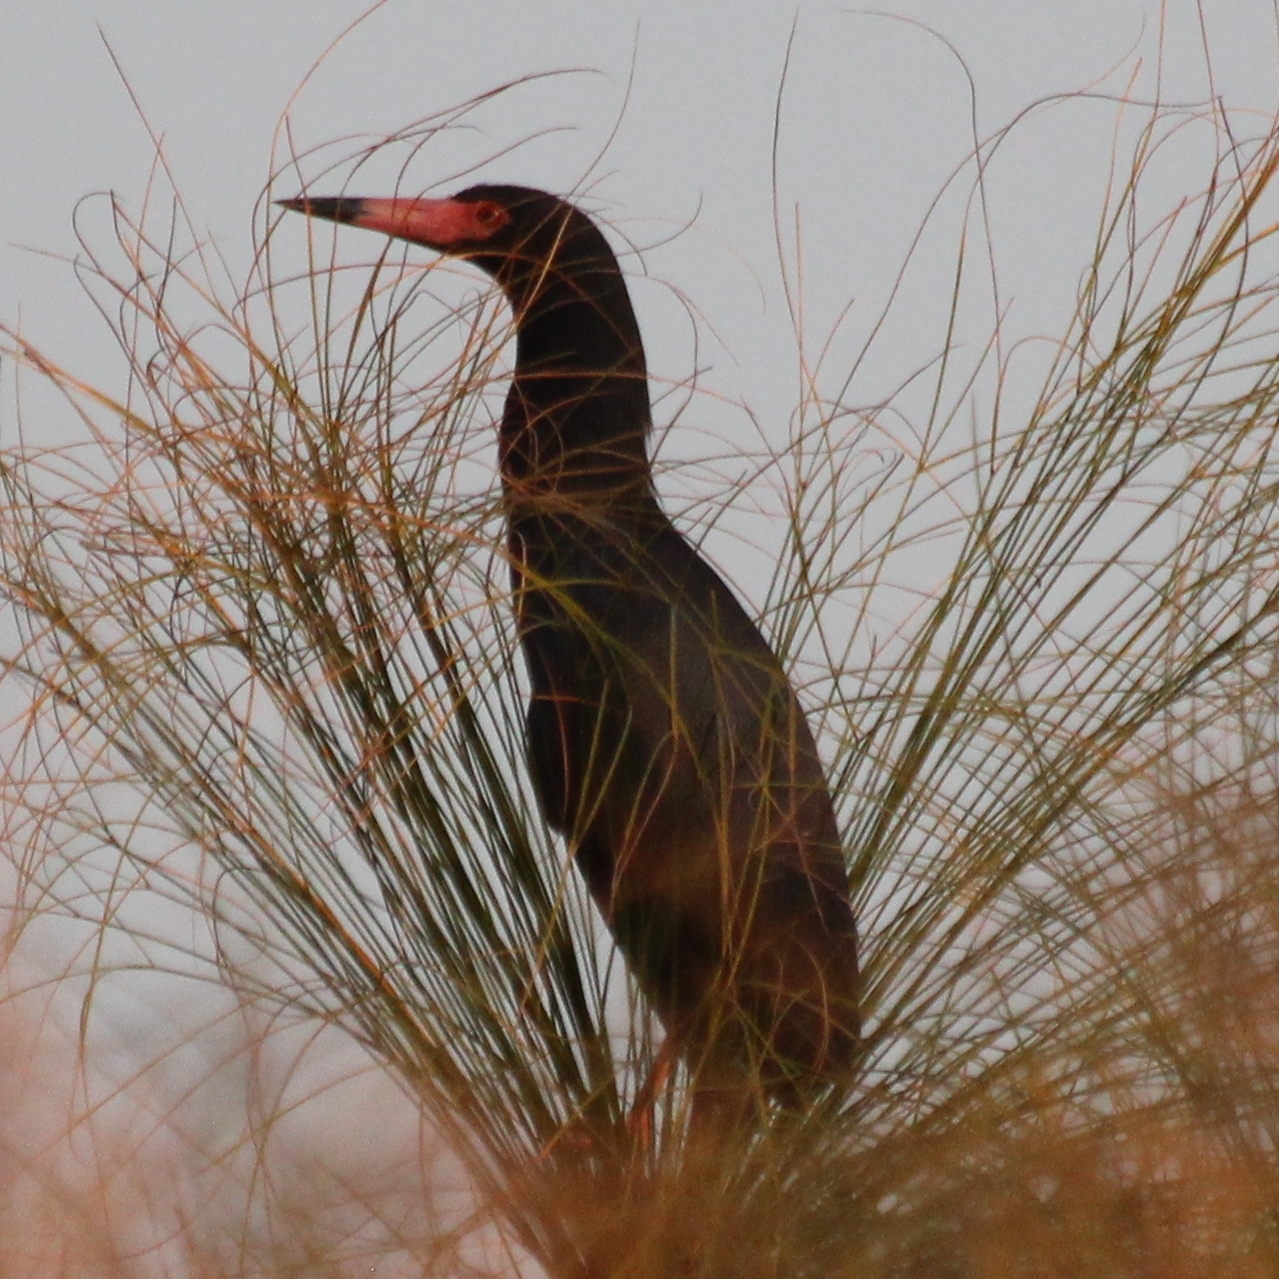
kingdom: Animalia
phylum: Chordata
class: Aves
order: Pelecaniformes
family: Ardeidae
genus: Ardeola
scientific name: Ardeola rufiventris
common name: Rufous-bellied heron
